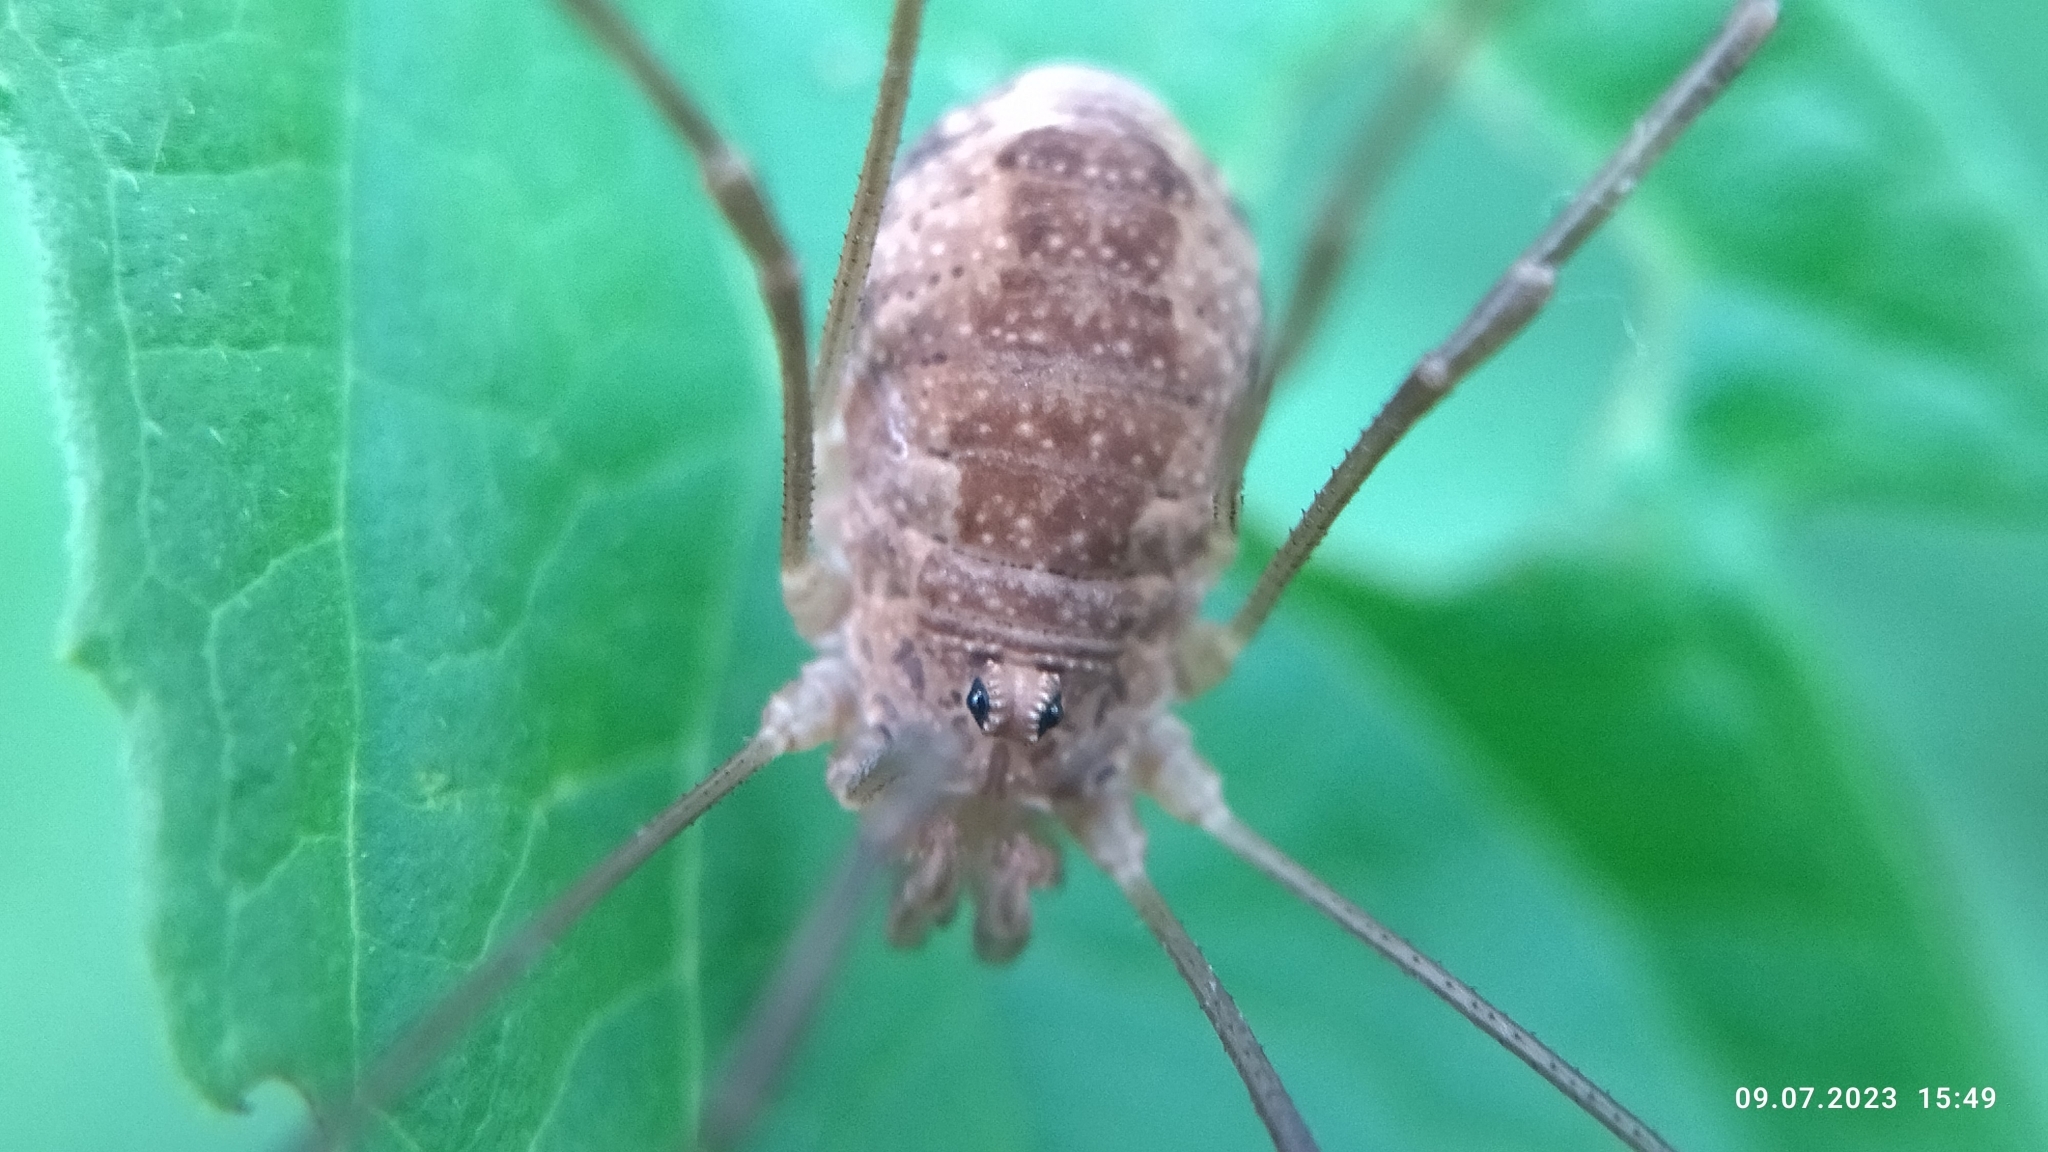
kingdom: Animalia
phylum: Arthropoda
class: Arachnida
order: Opiliones
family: Phalangiidae
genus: Rilaena
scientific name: Rilaena triangularis
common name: Spring harvestman
